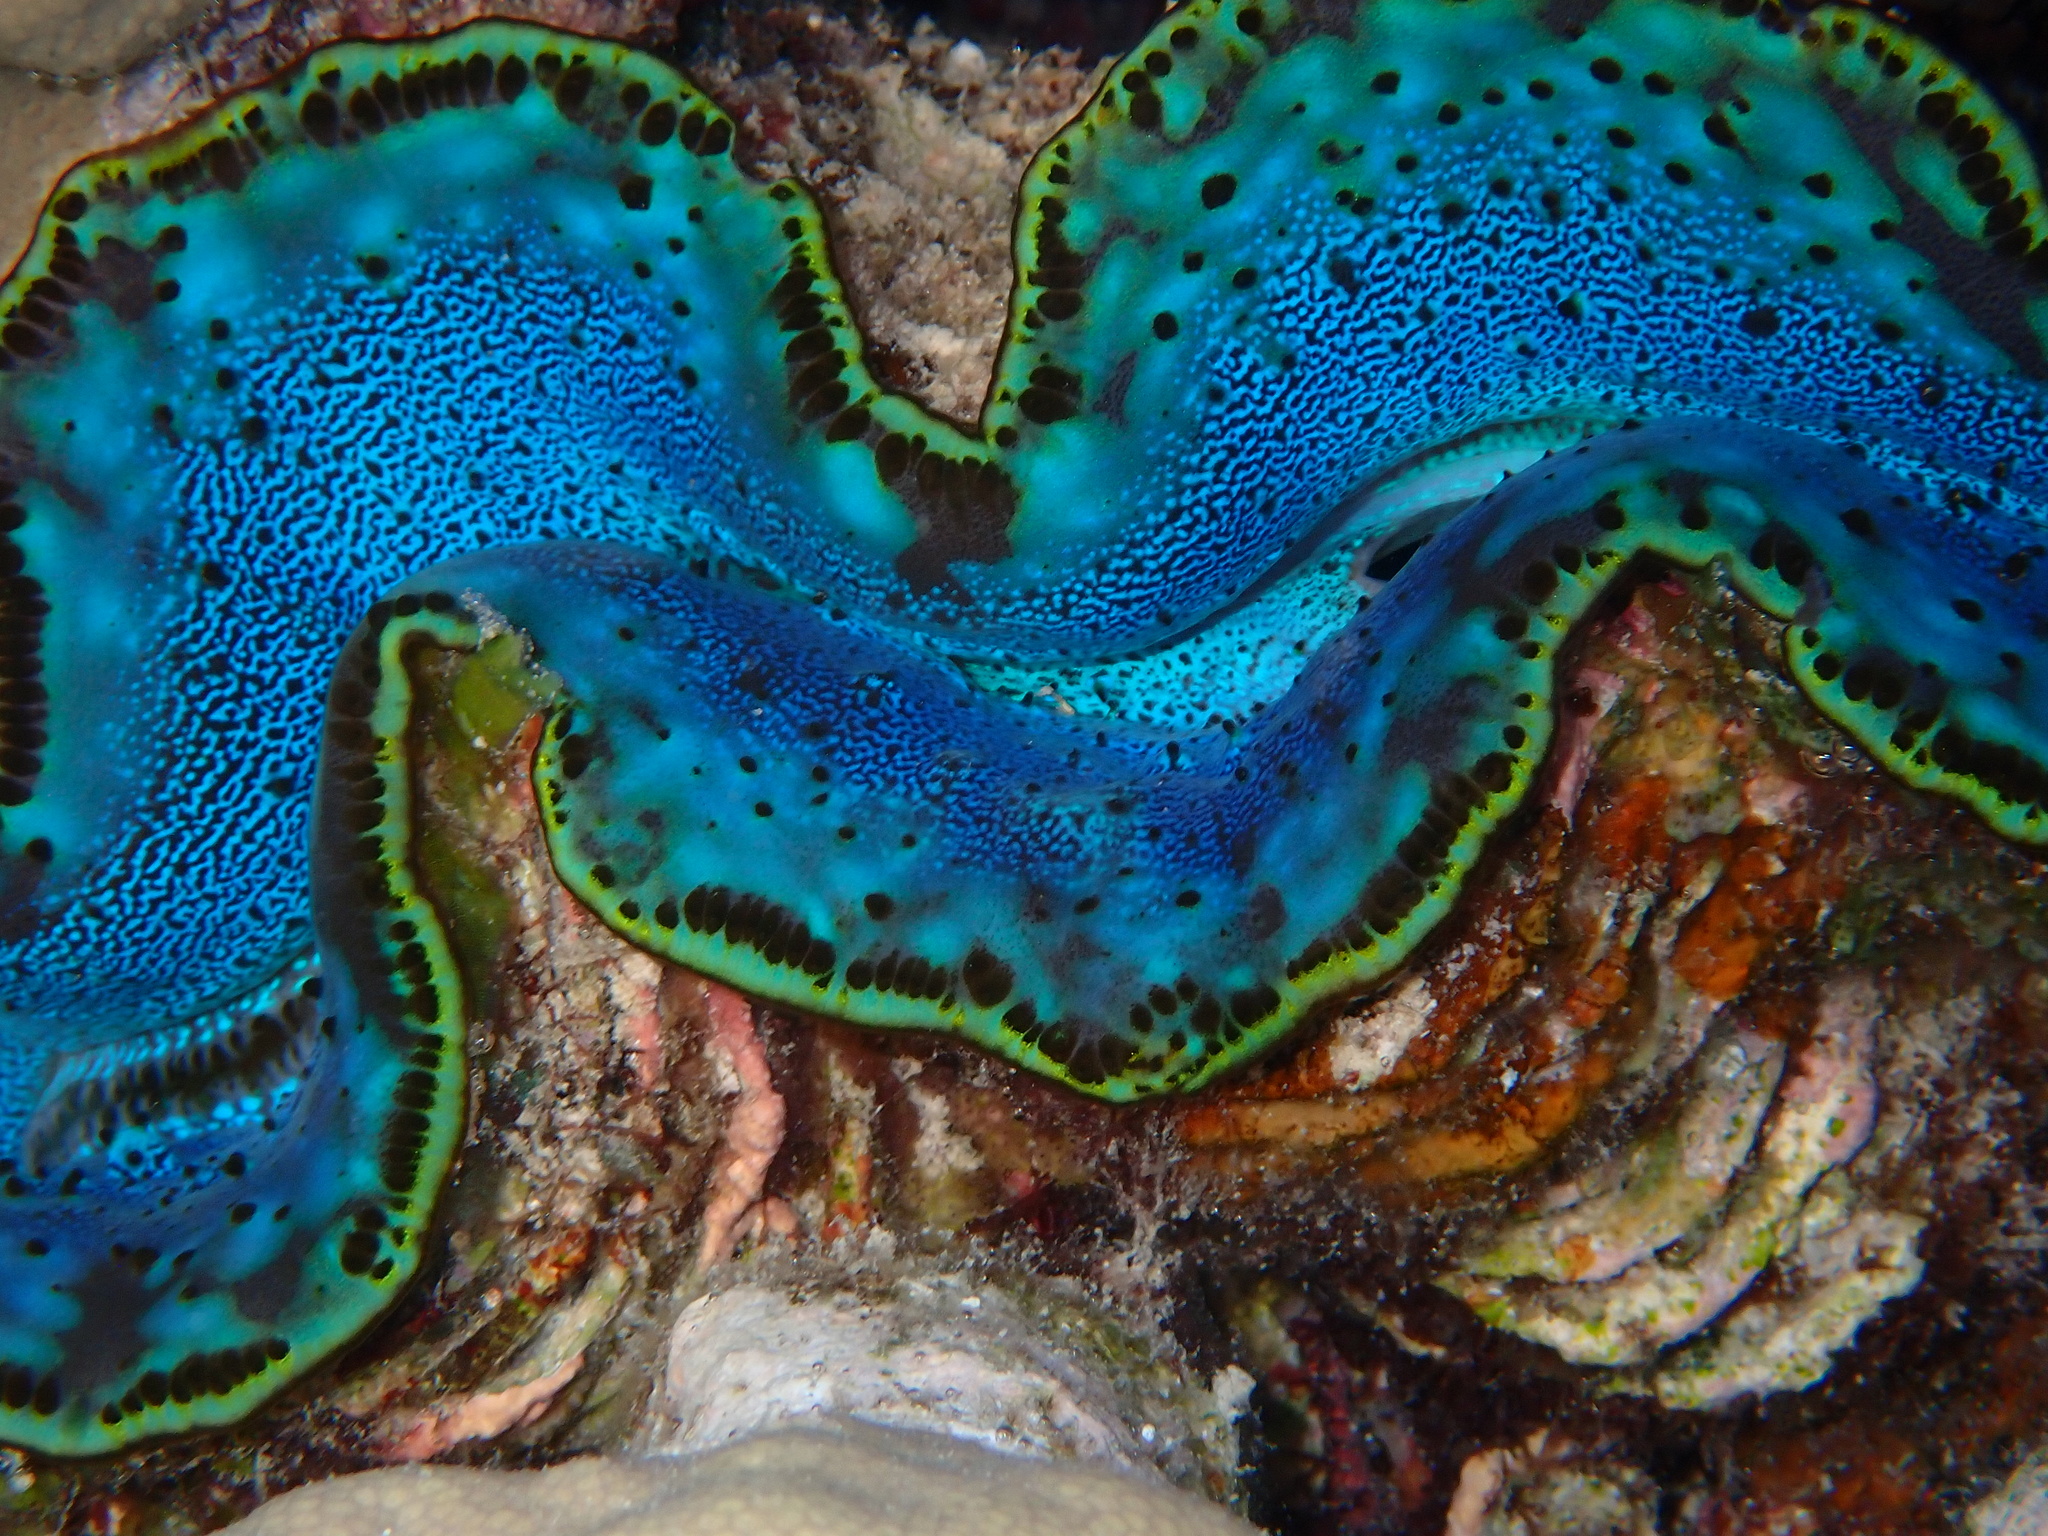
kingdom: Animalia
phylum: Mollusca
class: Bivalvia
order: Cardiida
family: Cardiidae
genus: Tridacna
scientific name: Tridacna maxima
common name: Small giant clam
